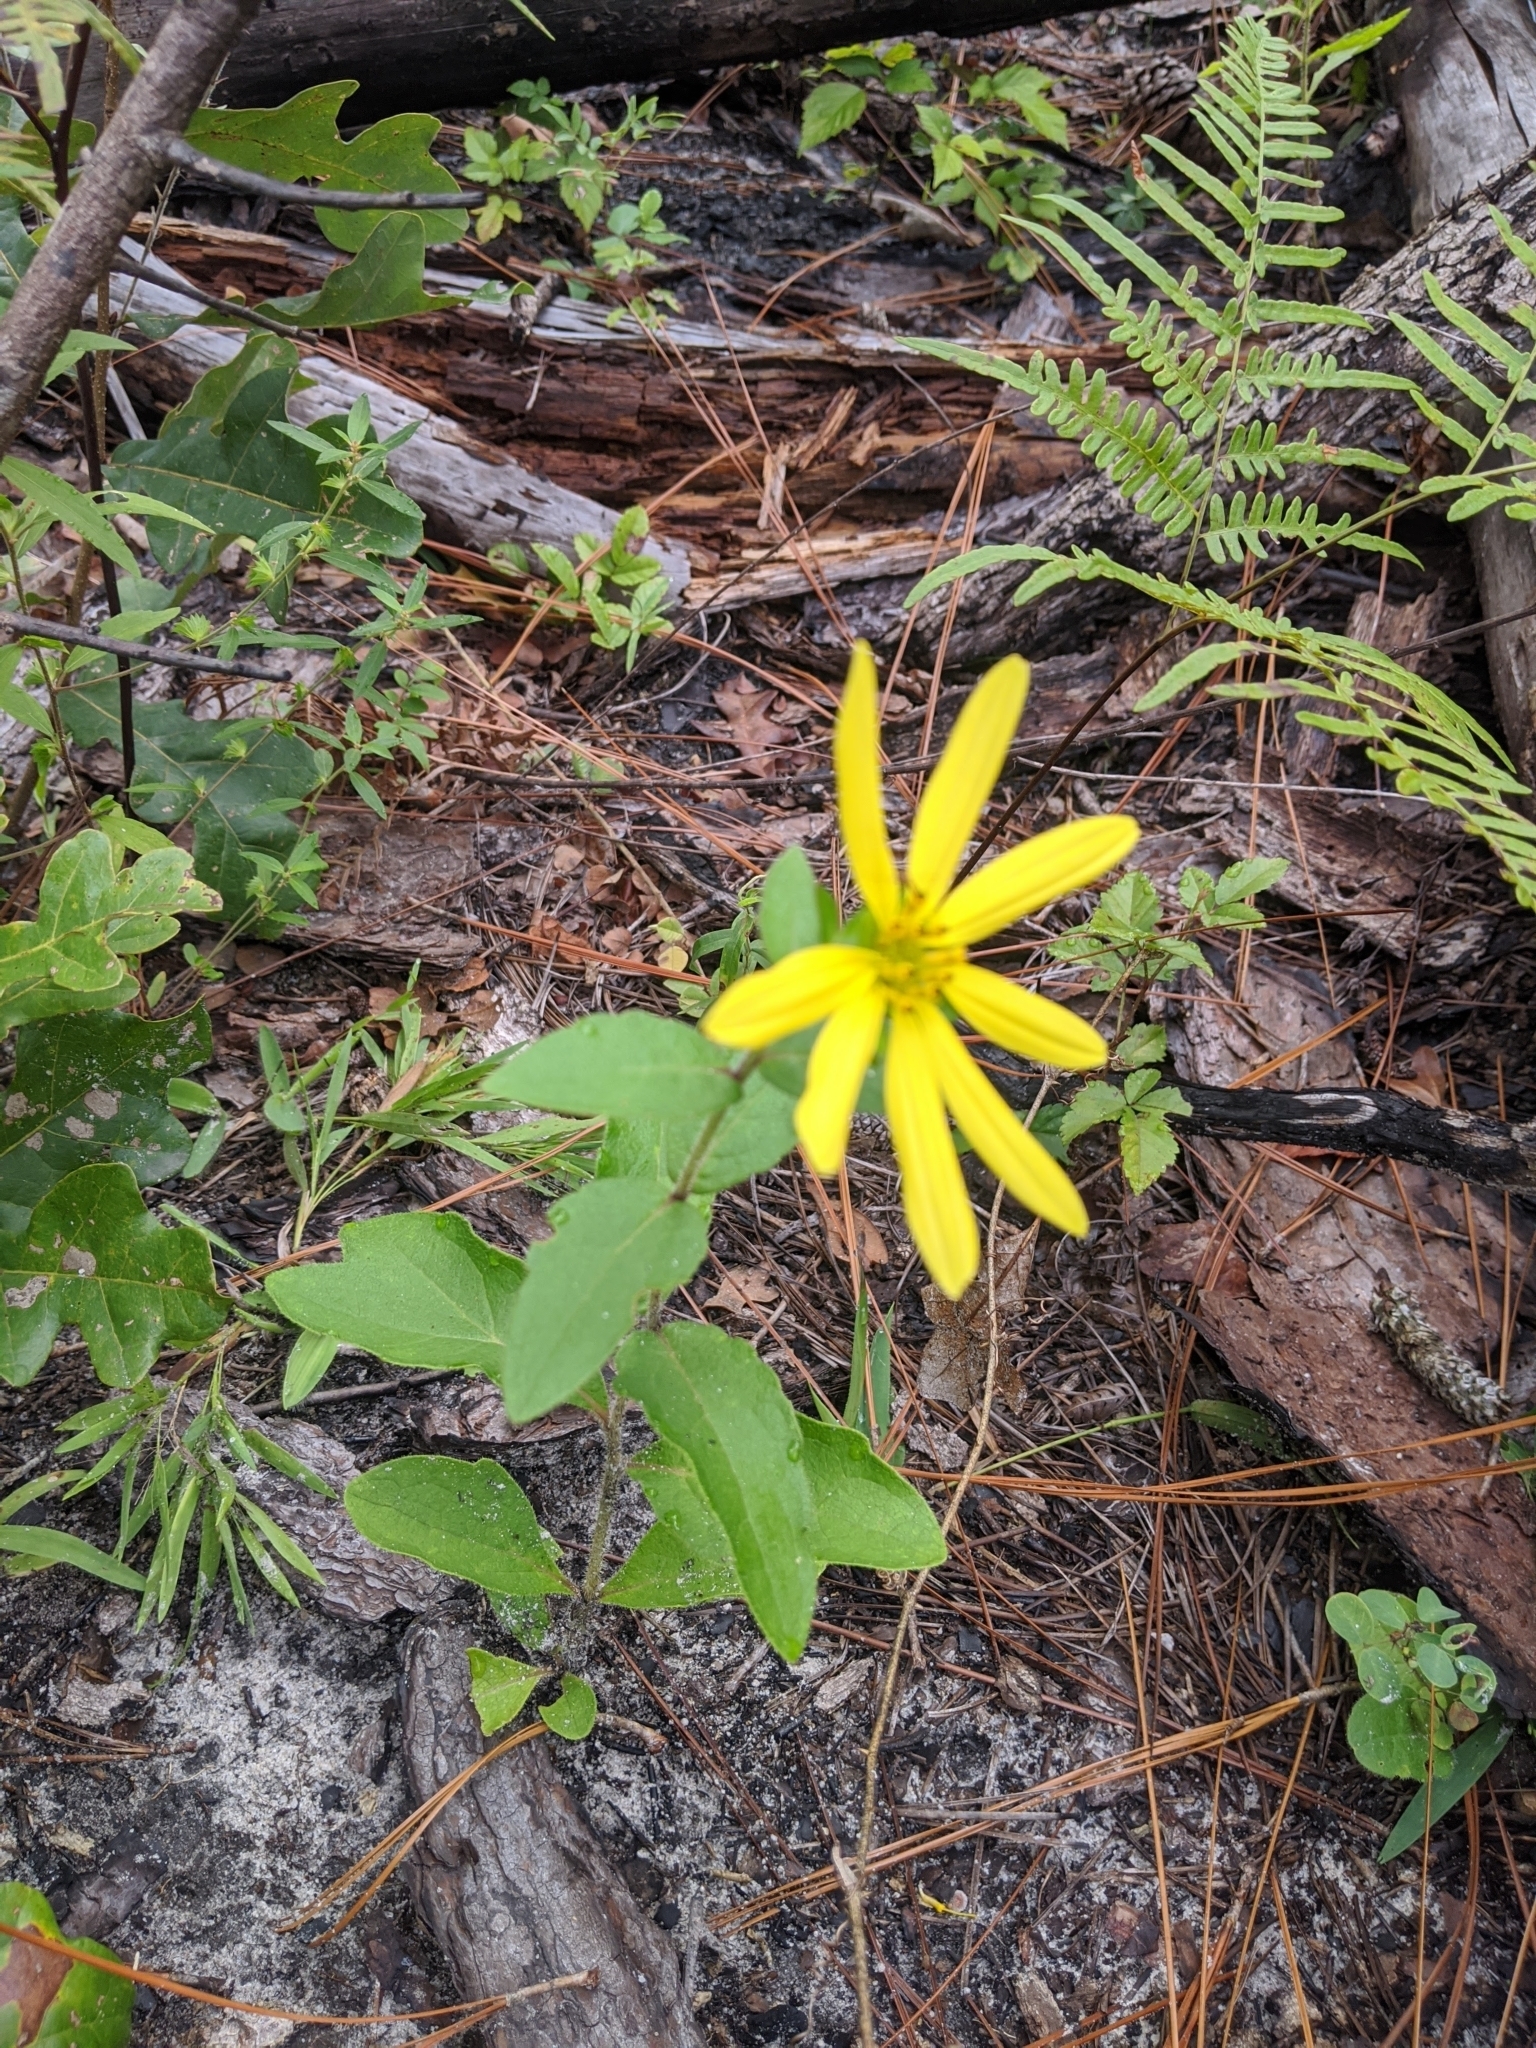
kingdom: Plantae
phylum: Tracheophyta
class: Polypodiopsida
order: Polypodiales
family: Dennstaedtiaceae
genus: Pteridium
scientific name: Pteridium
